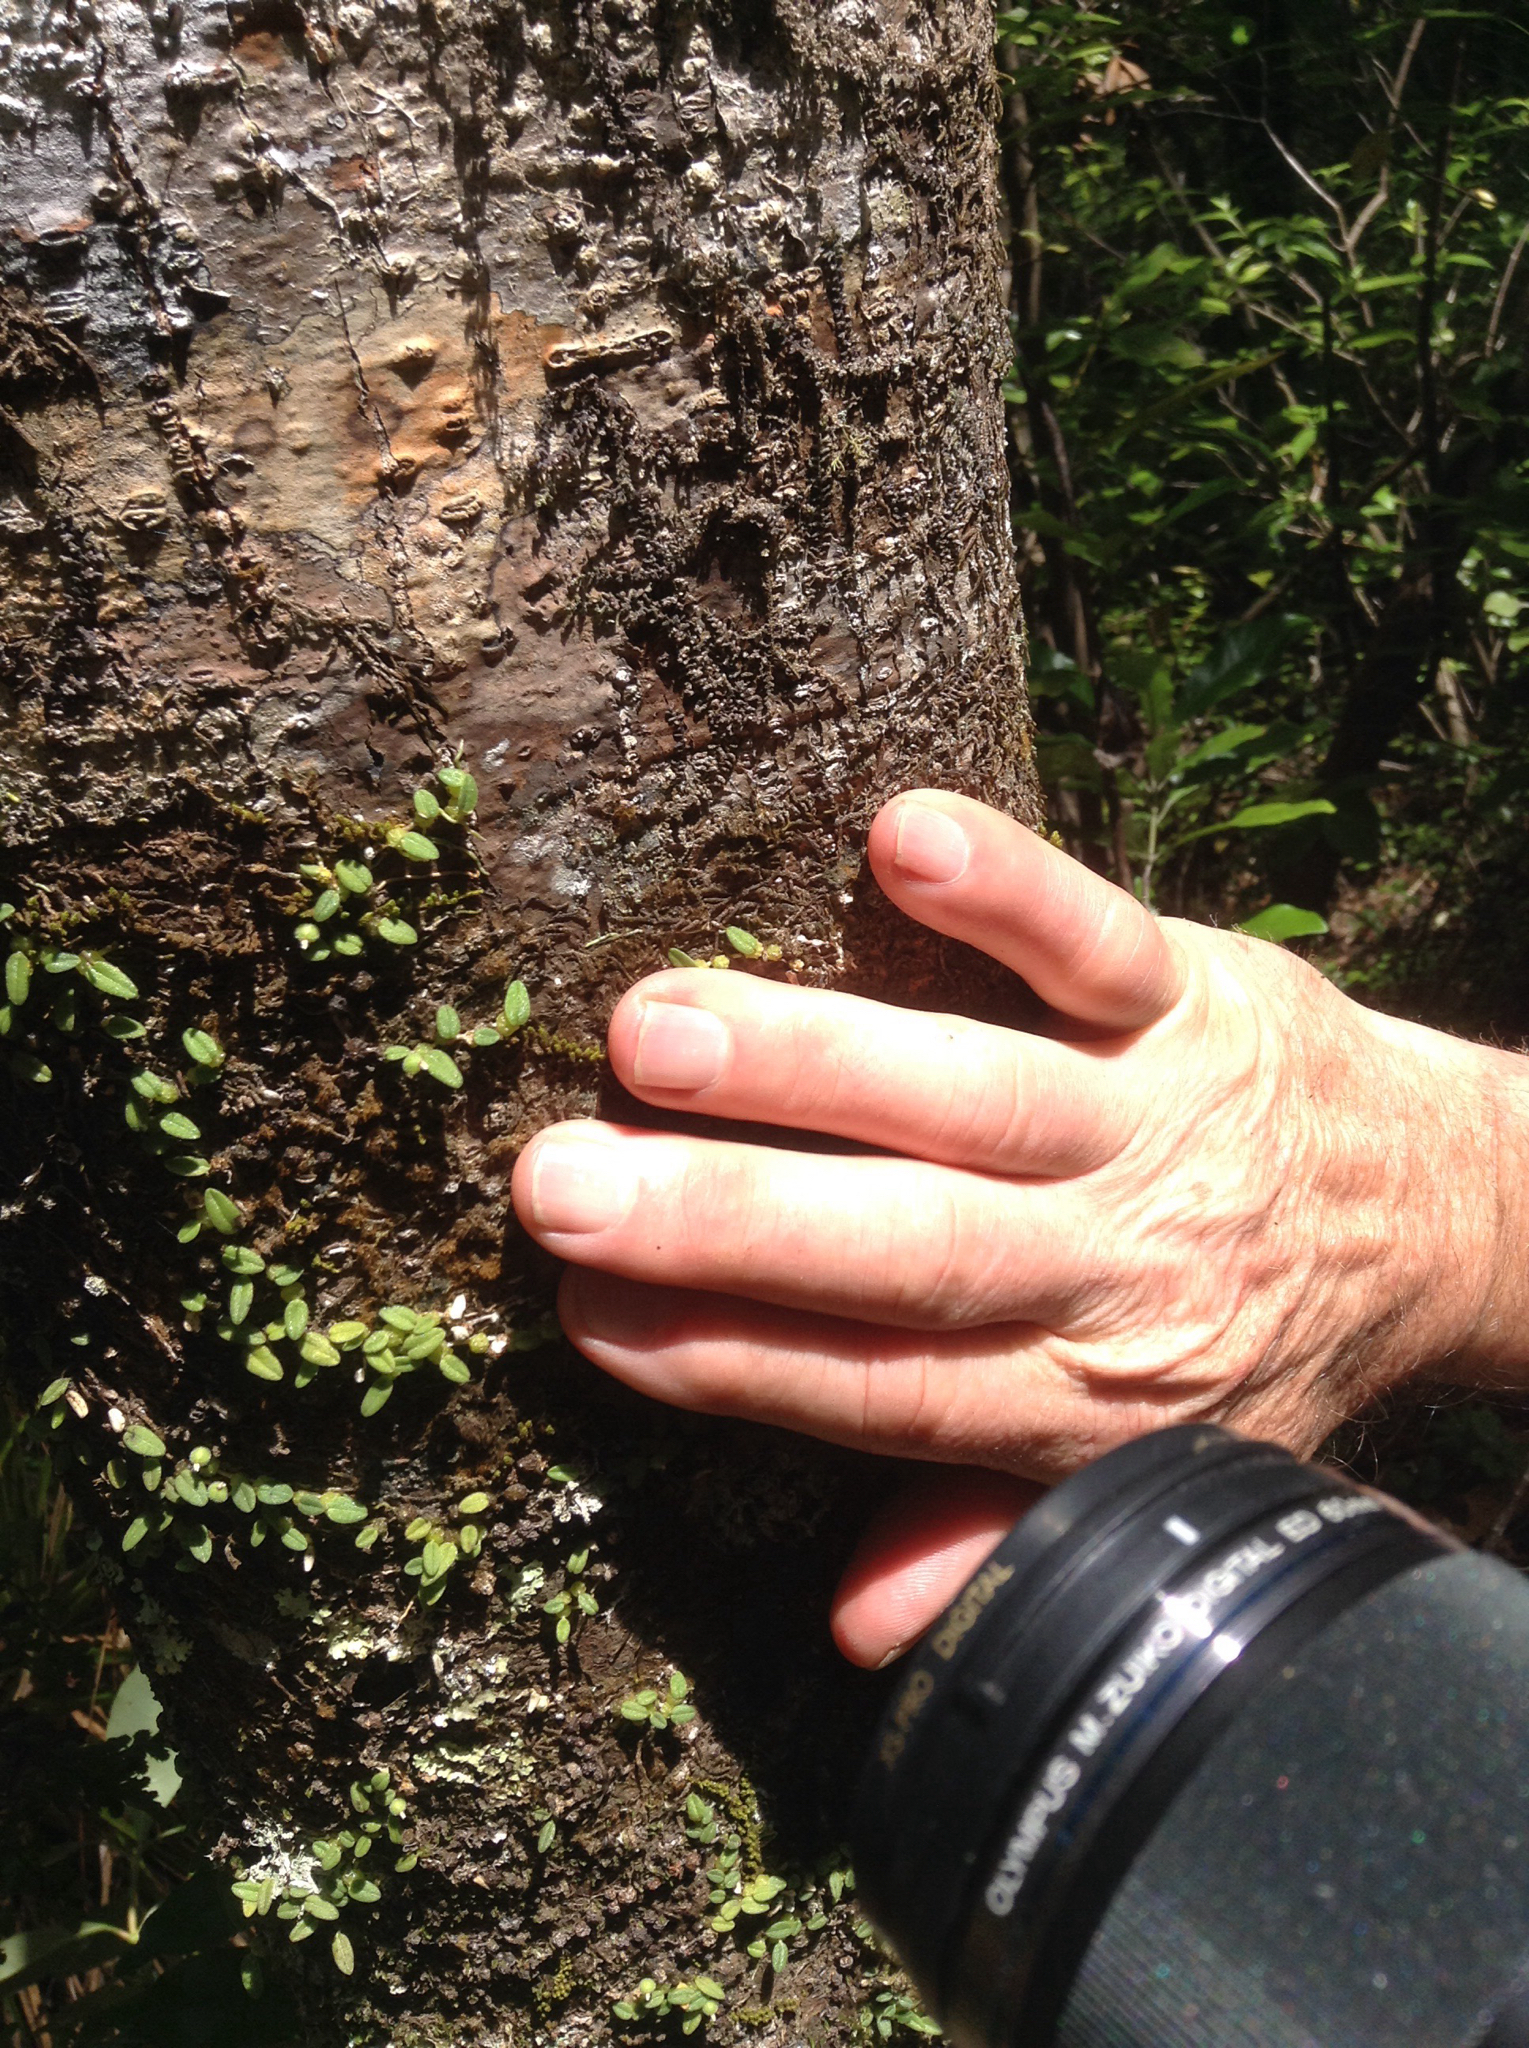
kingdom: Plantae
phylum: Tracheophyta
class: Liliopsida
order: Asparagales
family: Orchidaceae
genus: Bulbophyllum
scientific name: Bulbophyllum pygmaeum
